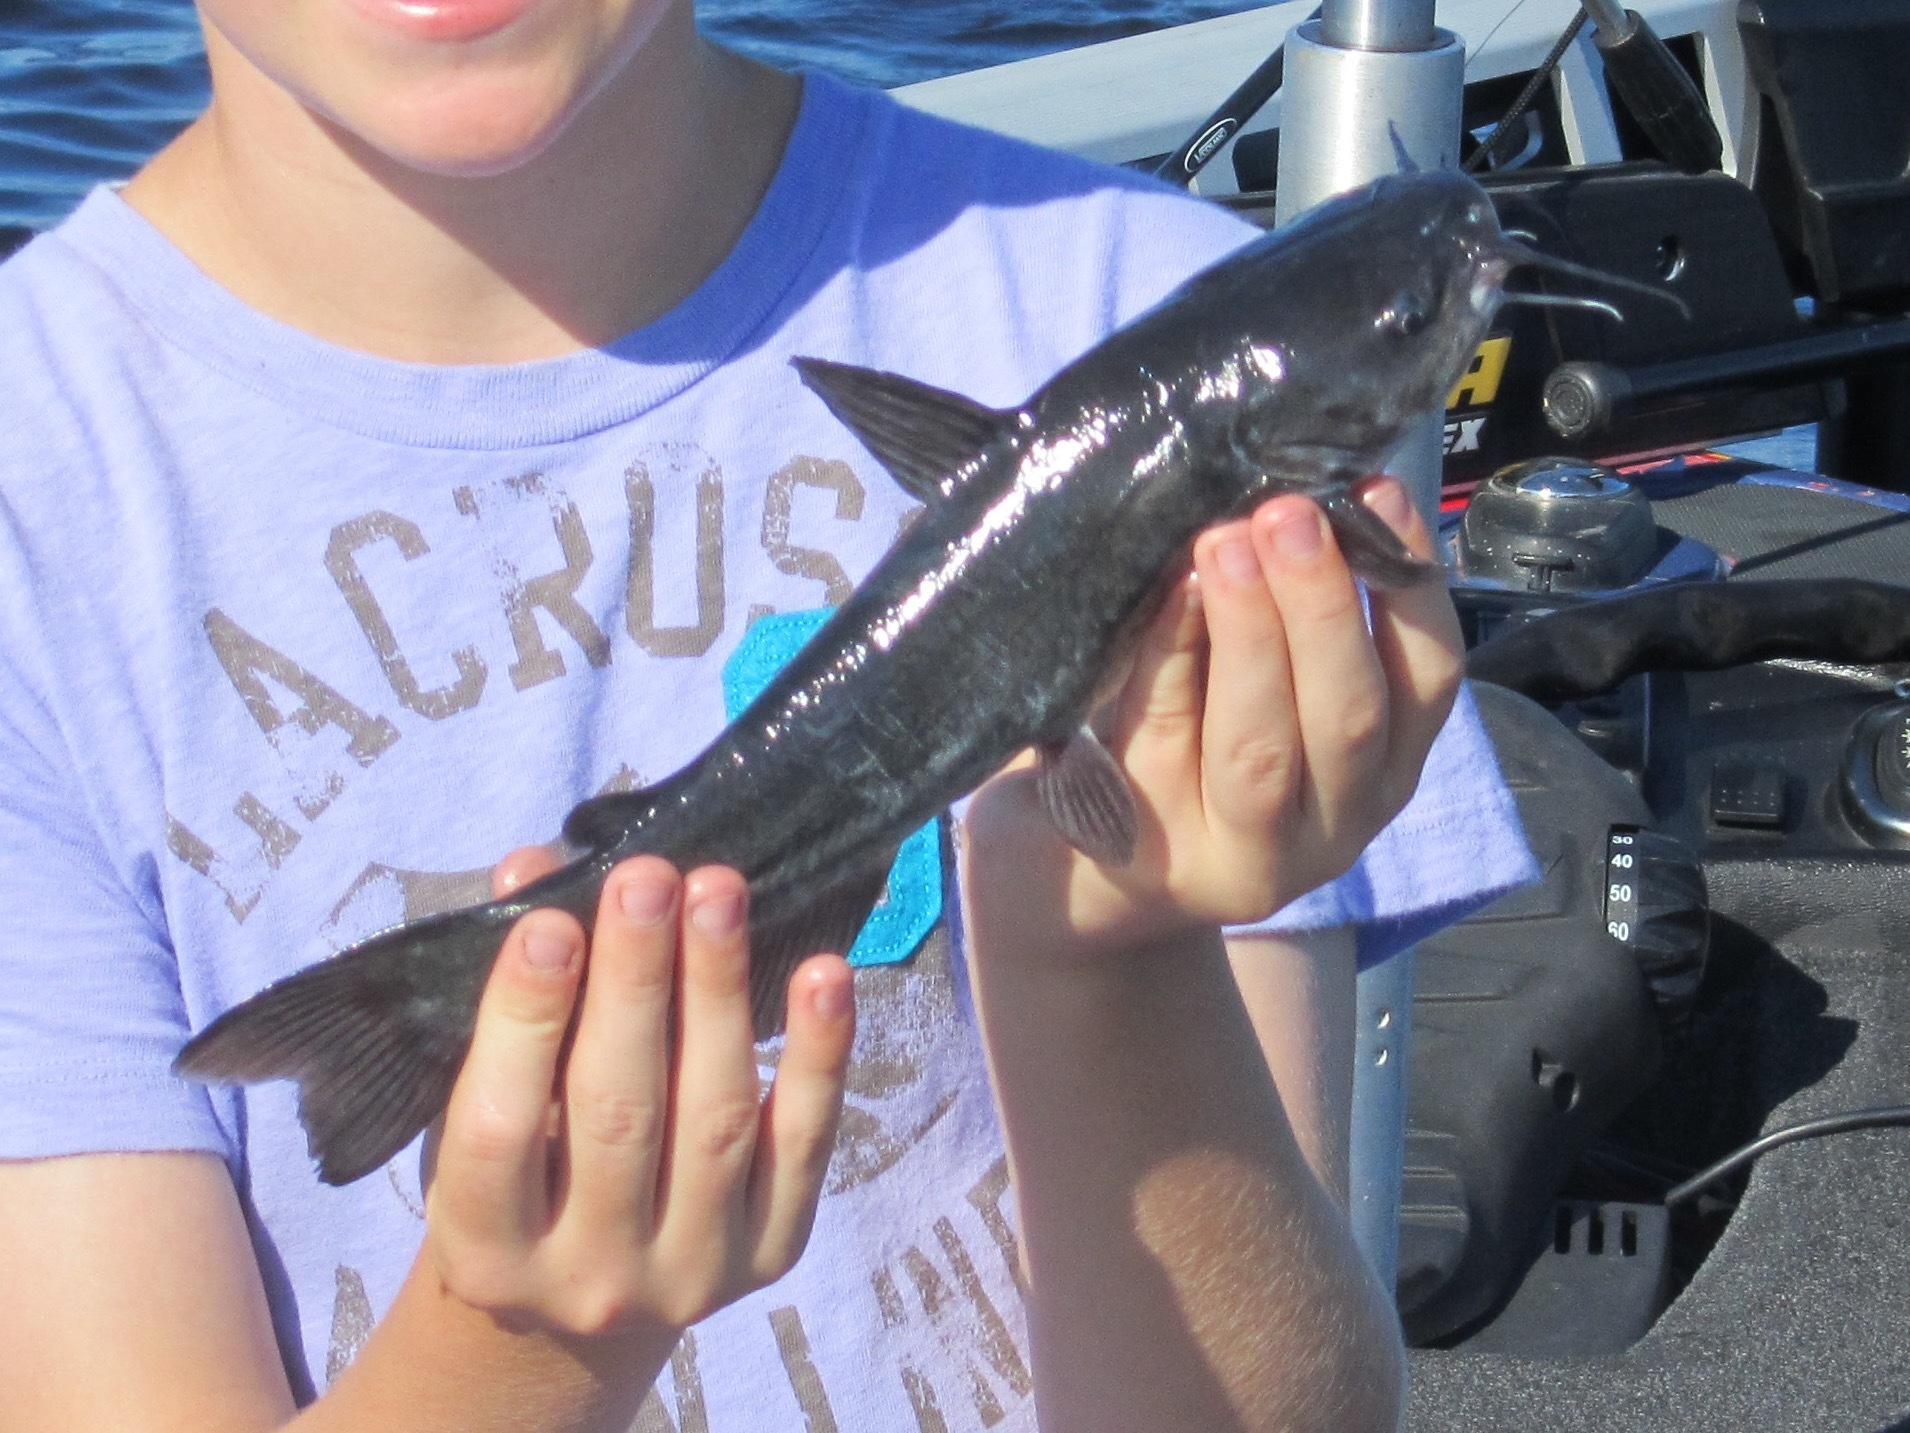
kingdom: Animalia
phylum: Chordata
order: Siluriformes
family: Ictaluridae
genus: Ameiurus
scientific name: Ameiurus catus
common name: White catfish
